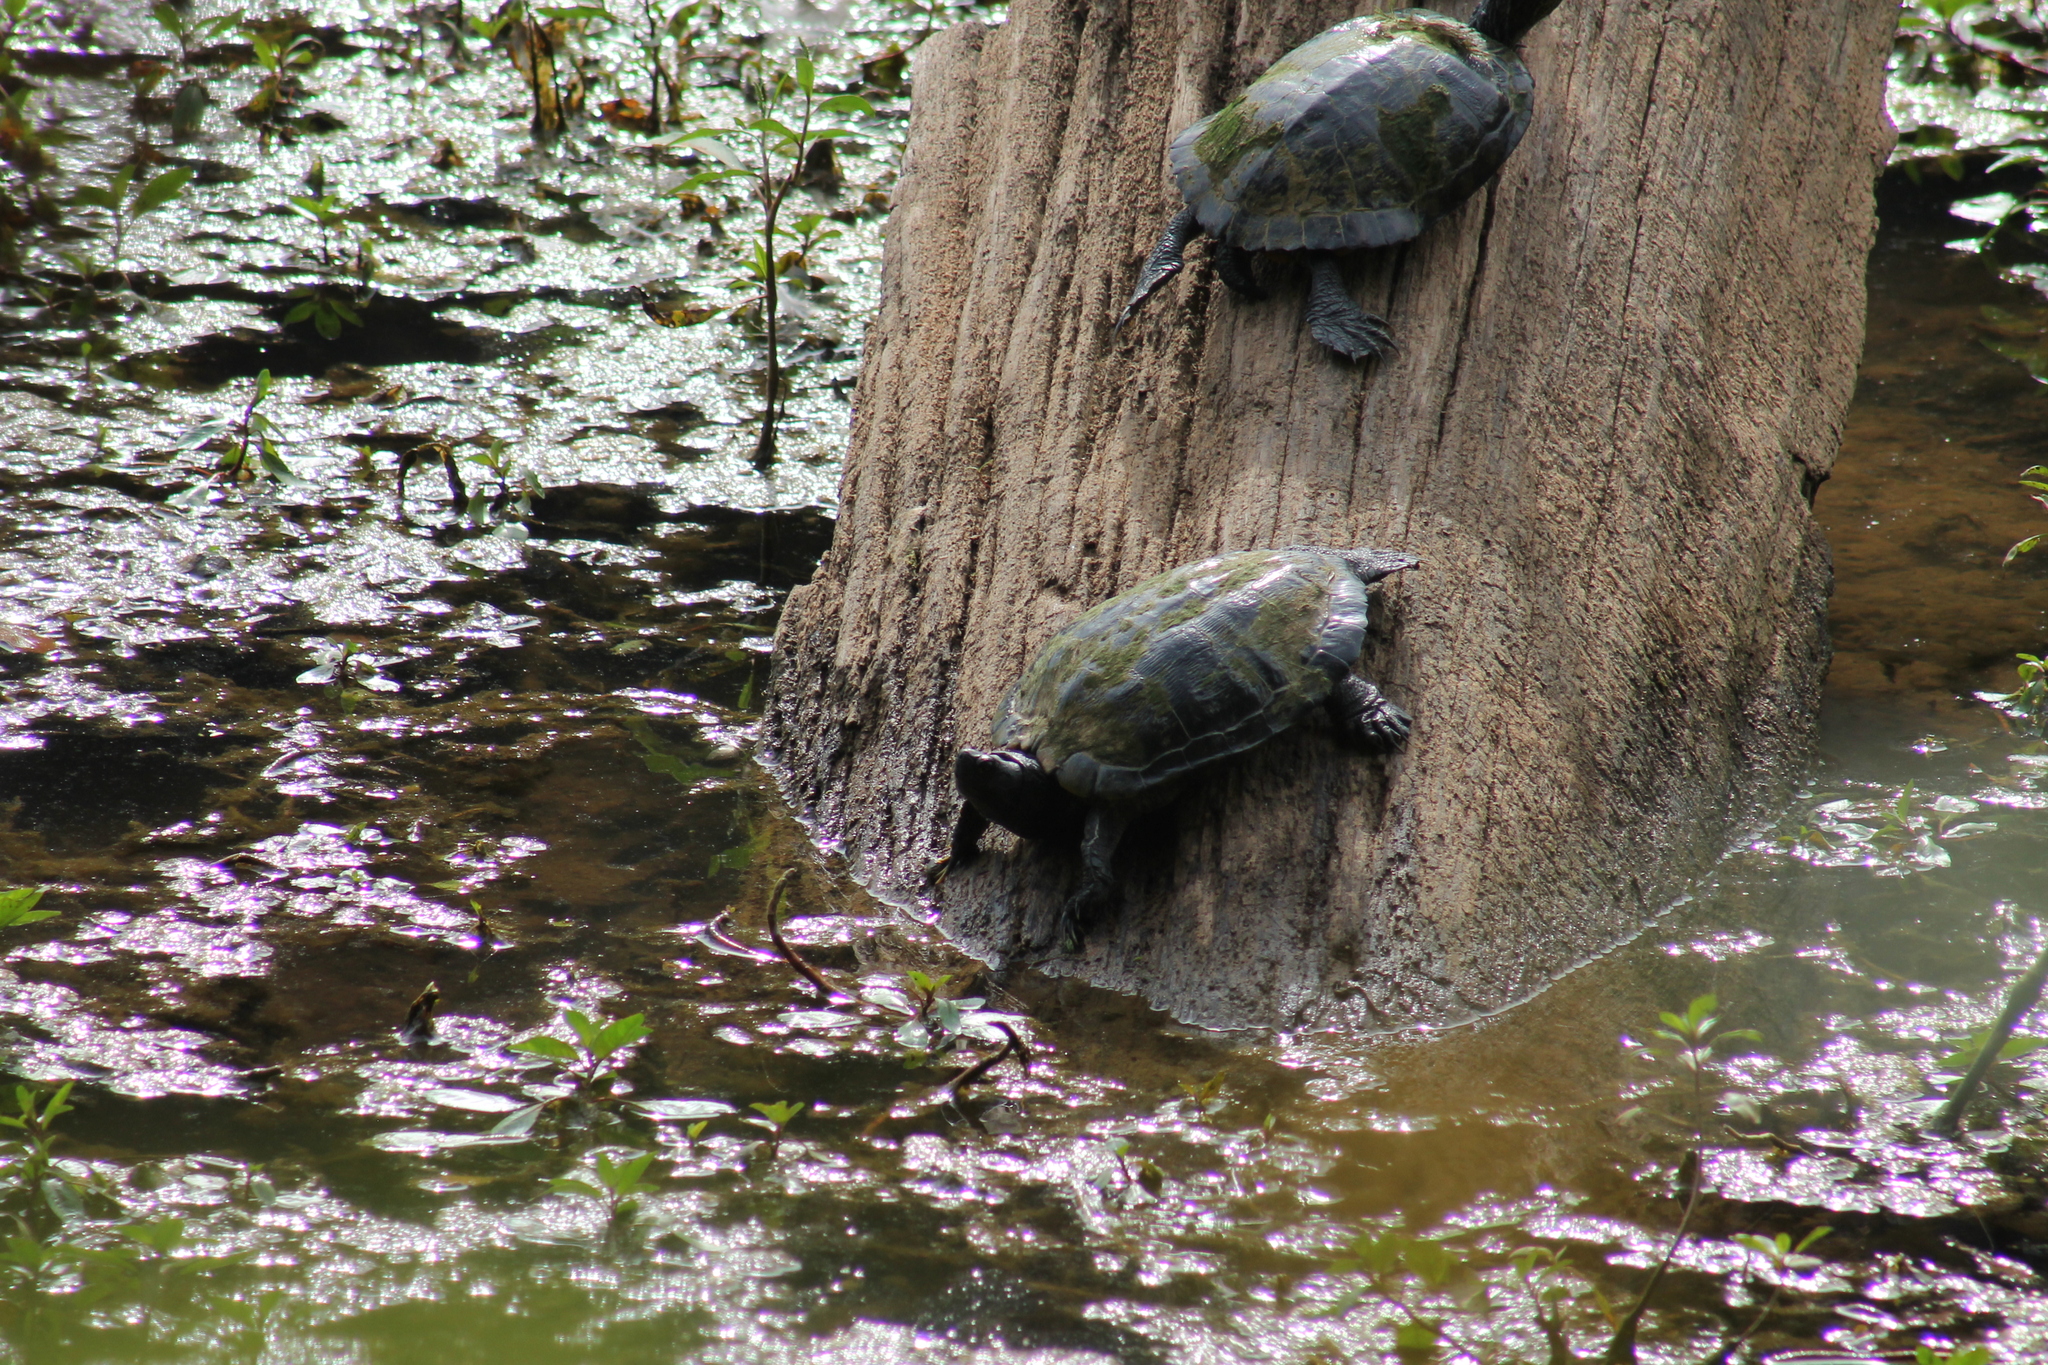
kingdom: Animalia
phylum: Chordata
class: Testudines
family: Emydidae
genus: Trachemys
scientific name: Trachemys scripta
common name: Slider
